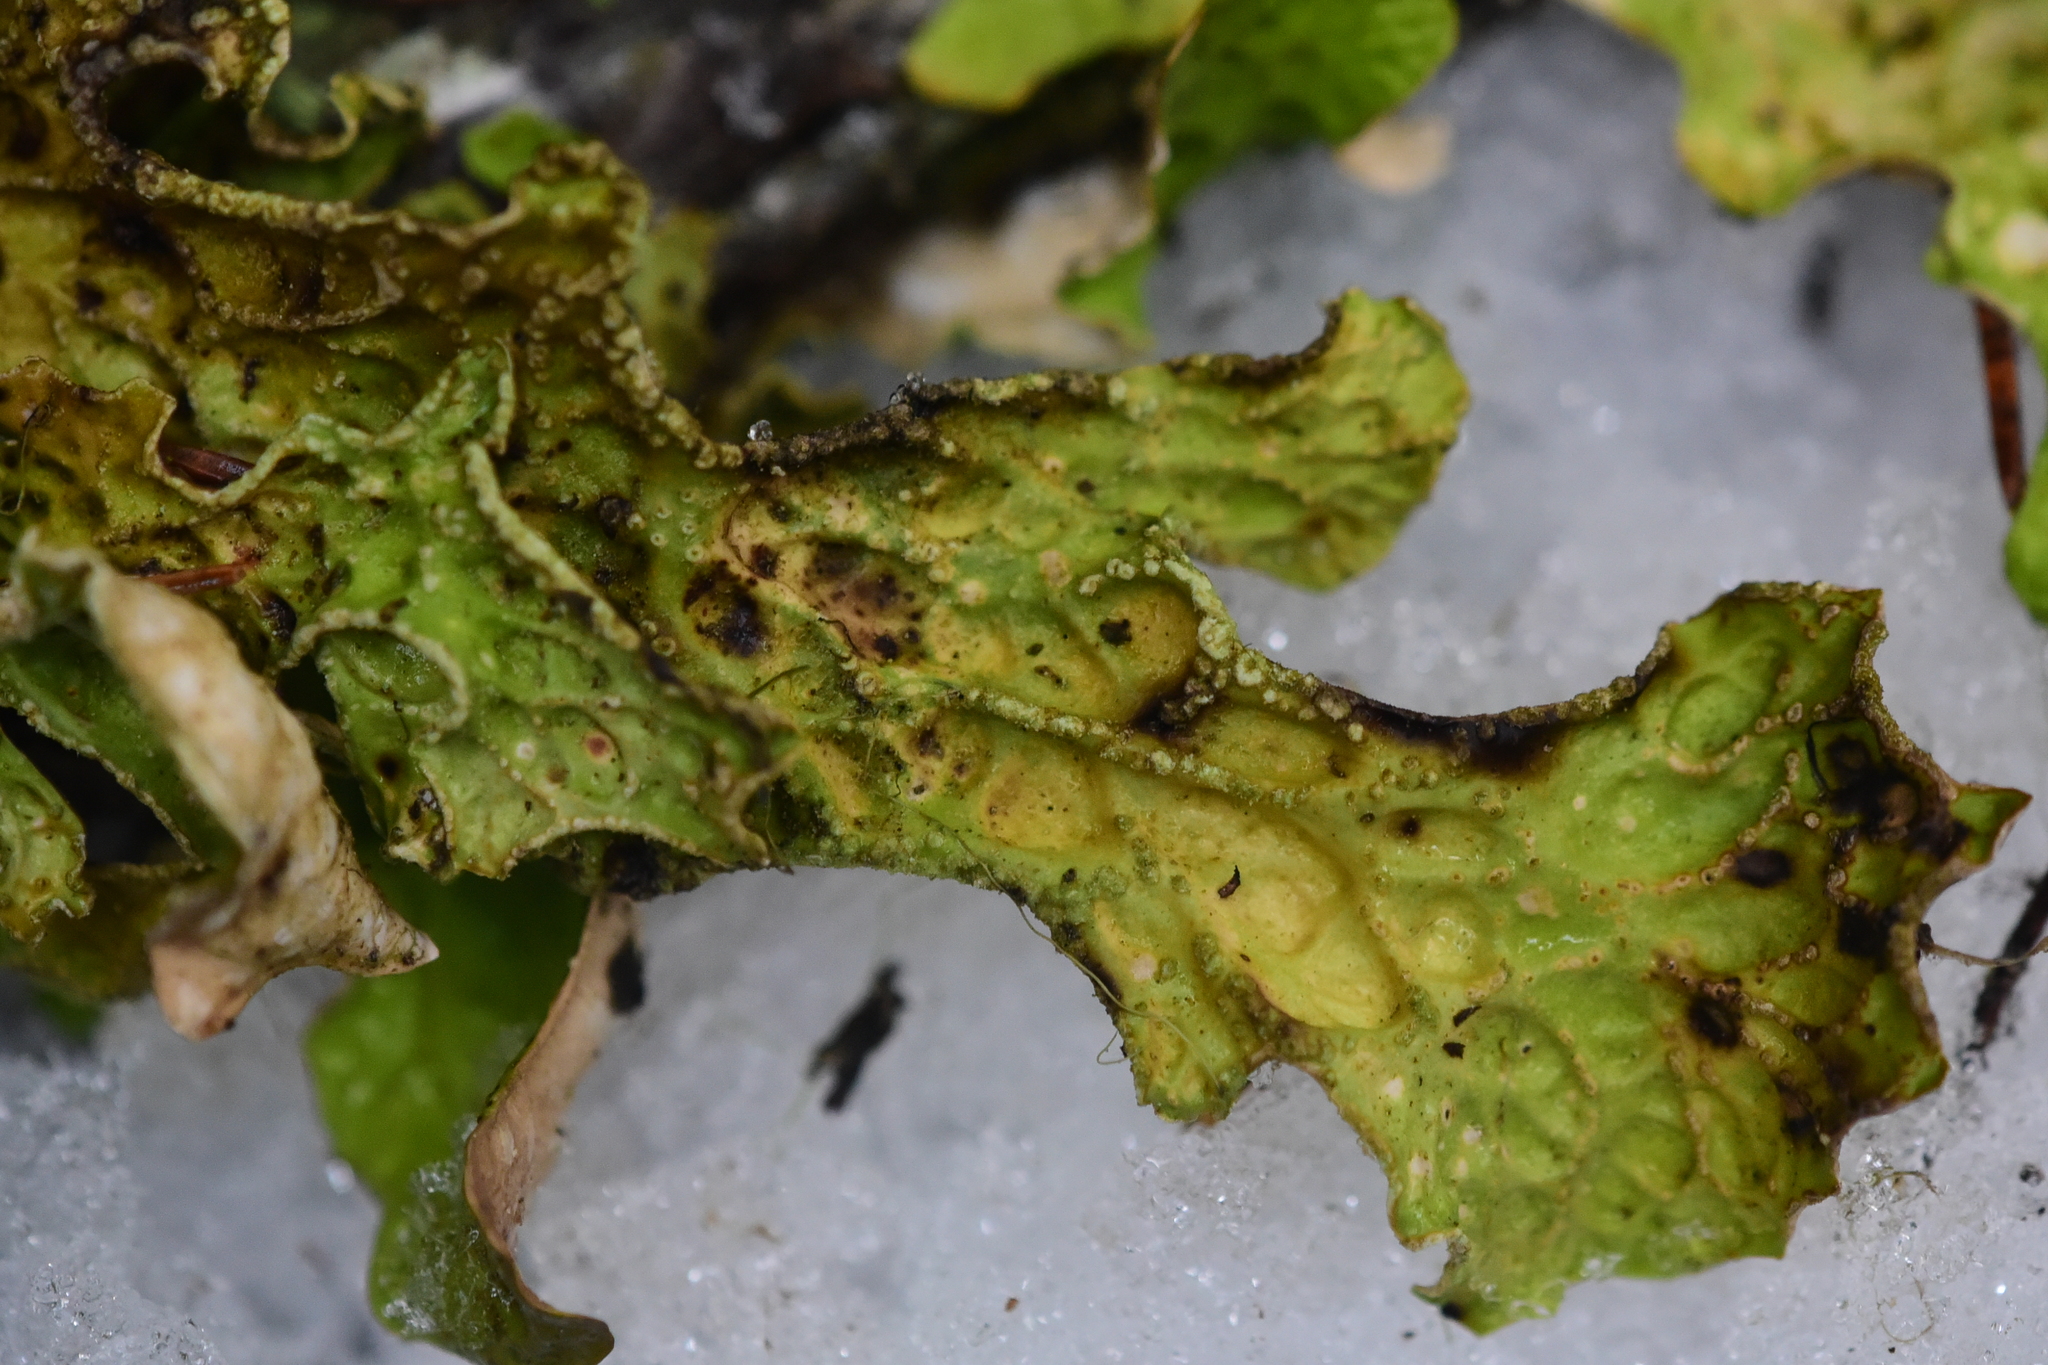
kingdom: Fungi
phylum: Ascomycota
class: Lecanoromycetes
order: Peltigerales
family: Lobariaceae
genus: Lobaria
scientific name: Lobaria pulmonaria
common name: Lungwort
